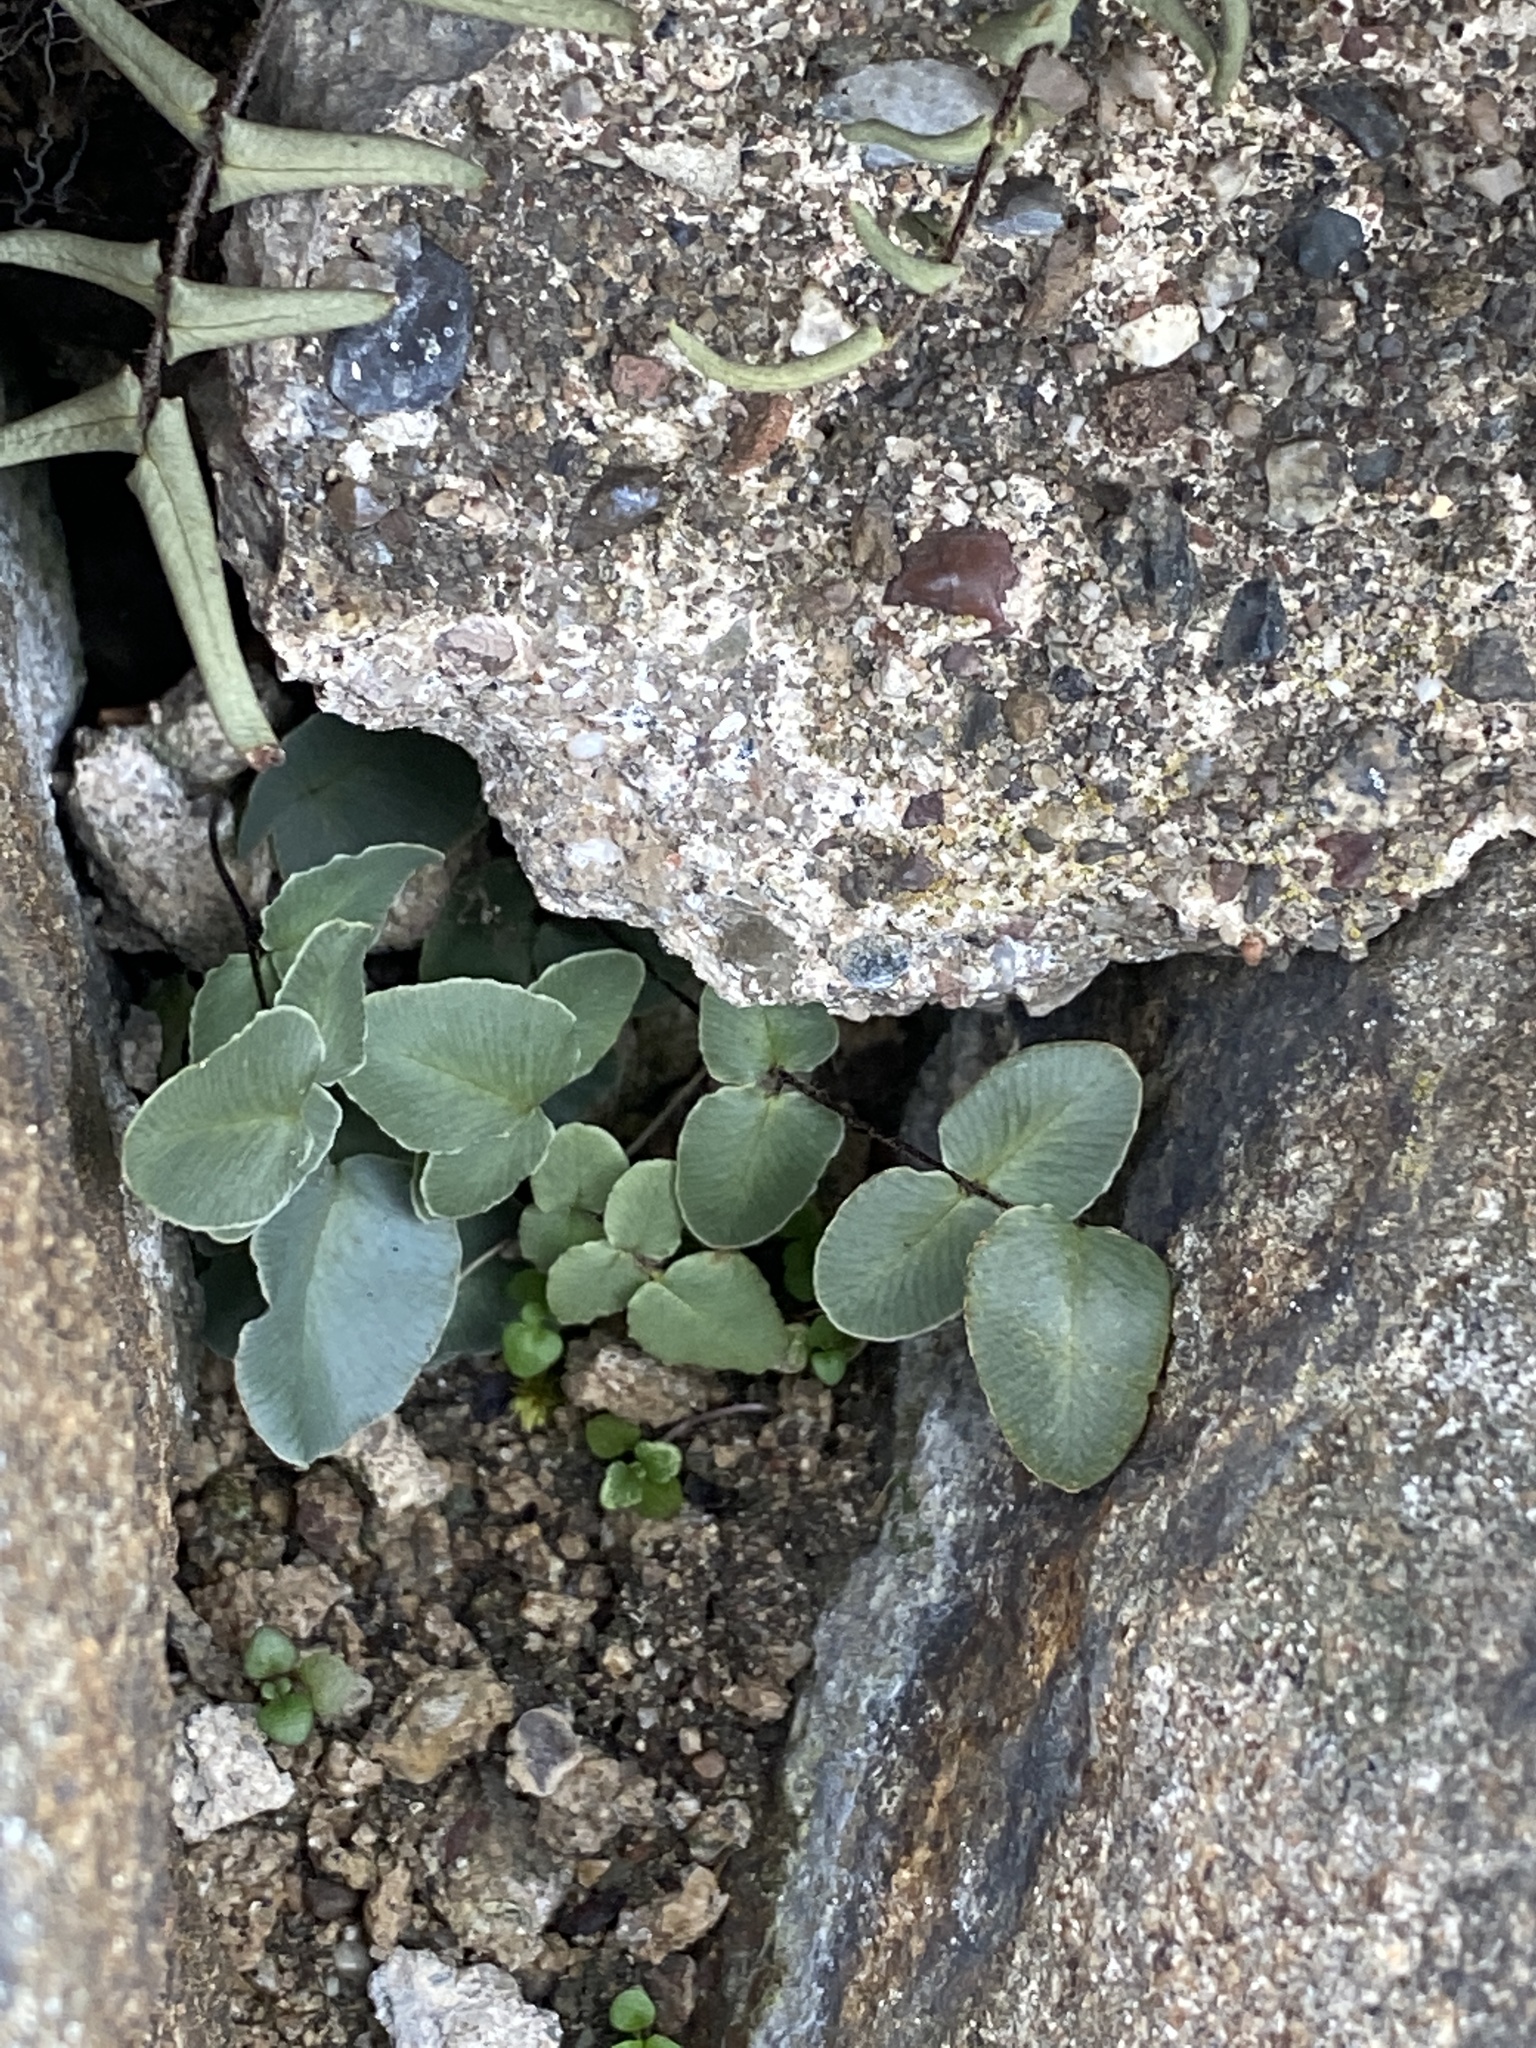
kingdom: Plantae
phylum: Tracheophyta
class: Polypodiopsida
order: Polypodiales
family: Pteridaceae
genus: Pellaea
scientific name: Pellaea atropurpurea
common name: Hairy cliffbrake
